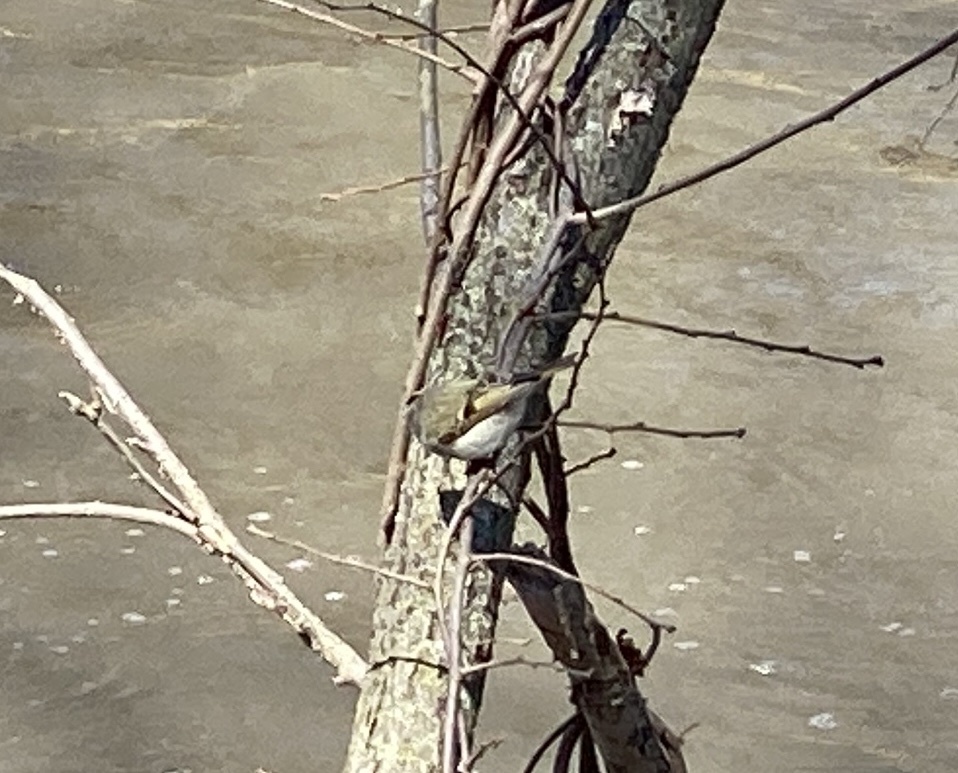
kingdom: Animalia
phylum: Chordata
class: Aves
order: Passeriformes
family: Regulidae
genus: Regulus
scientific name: Regulus satrapa
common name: Golden-crowned kinglet
